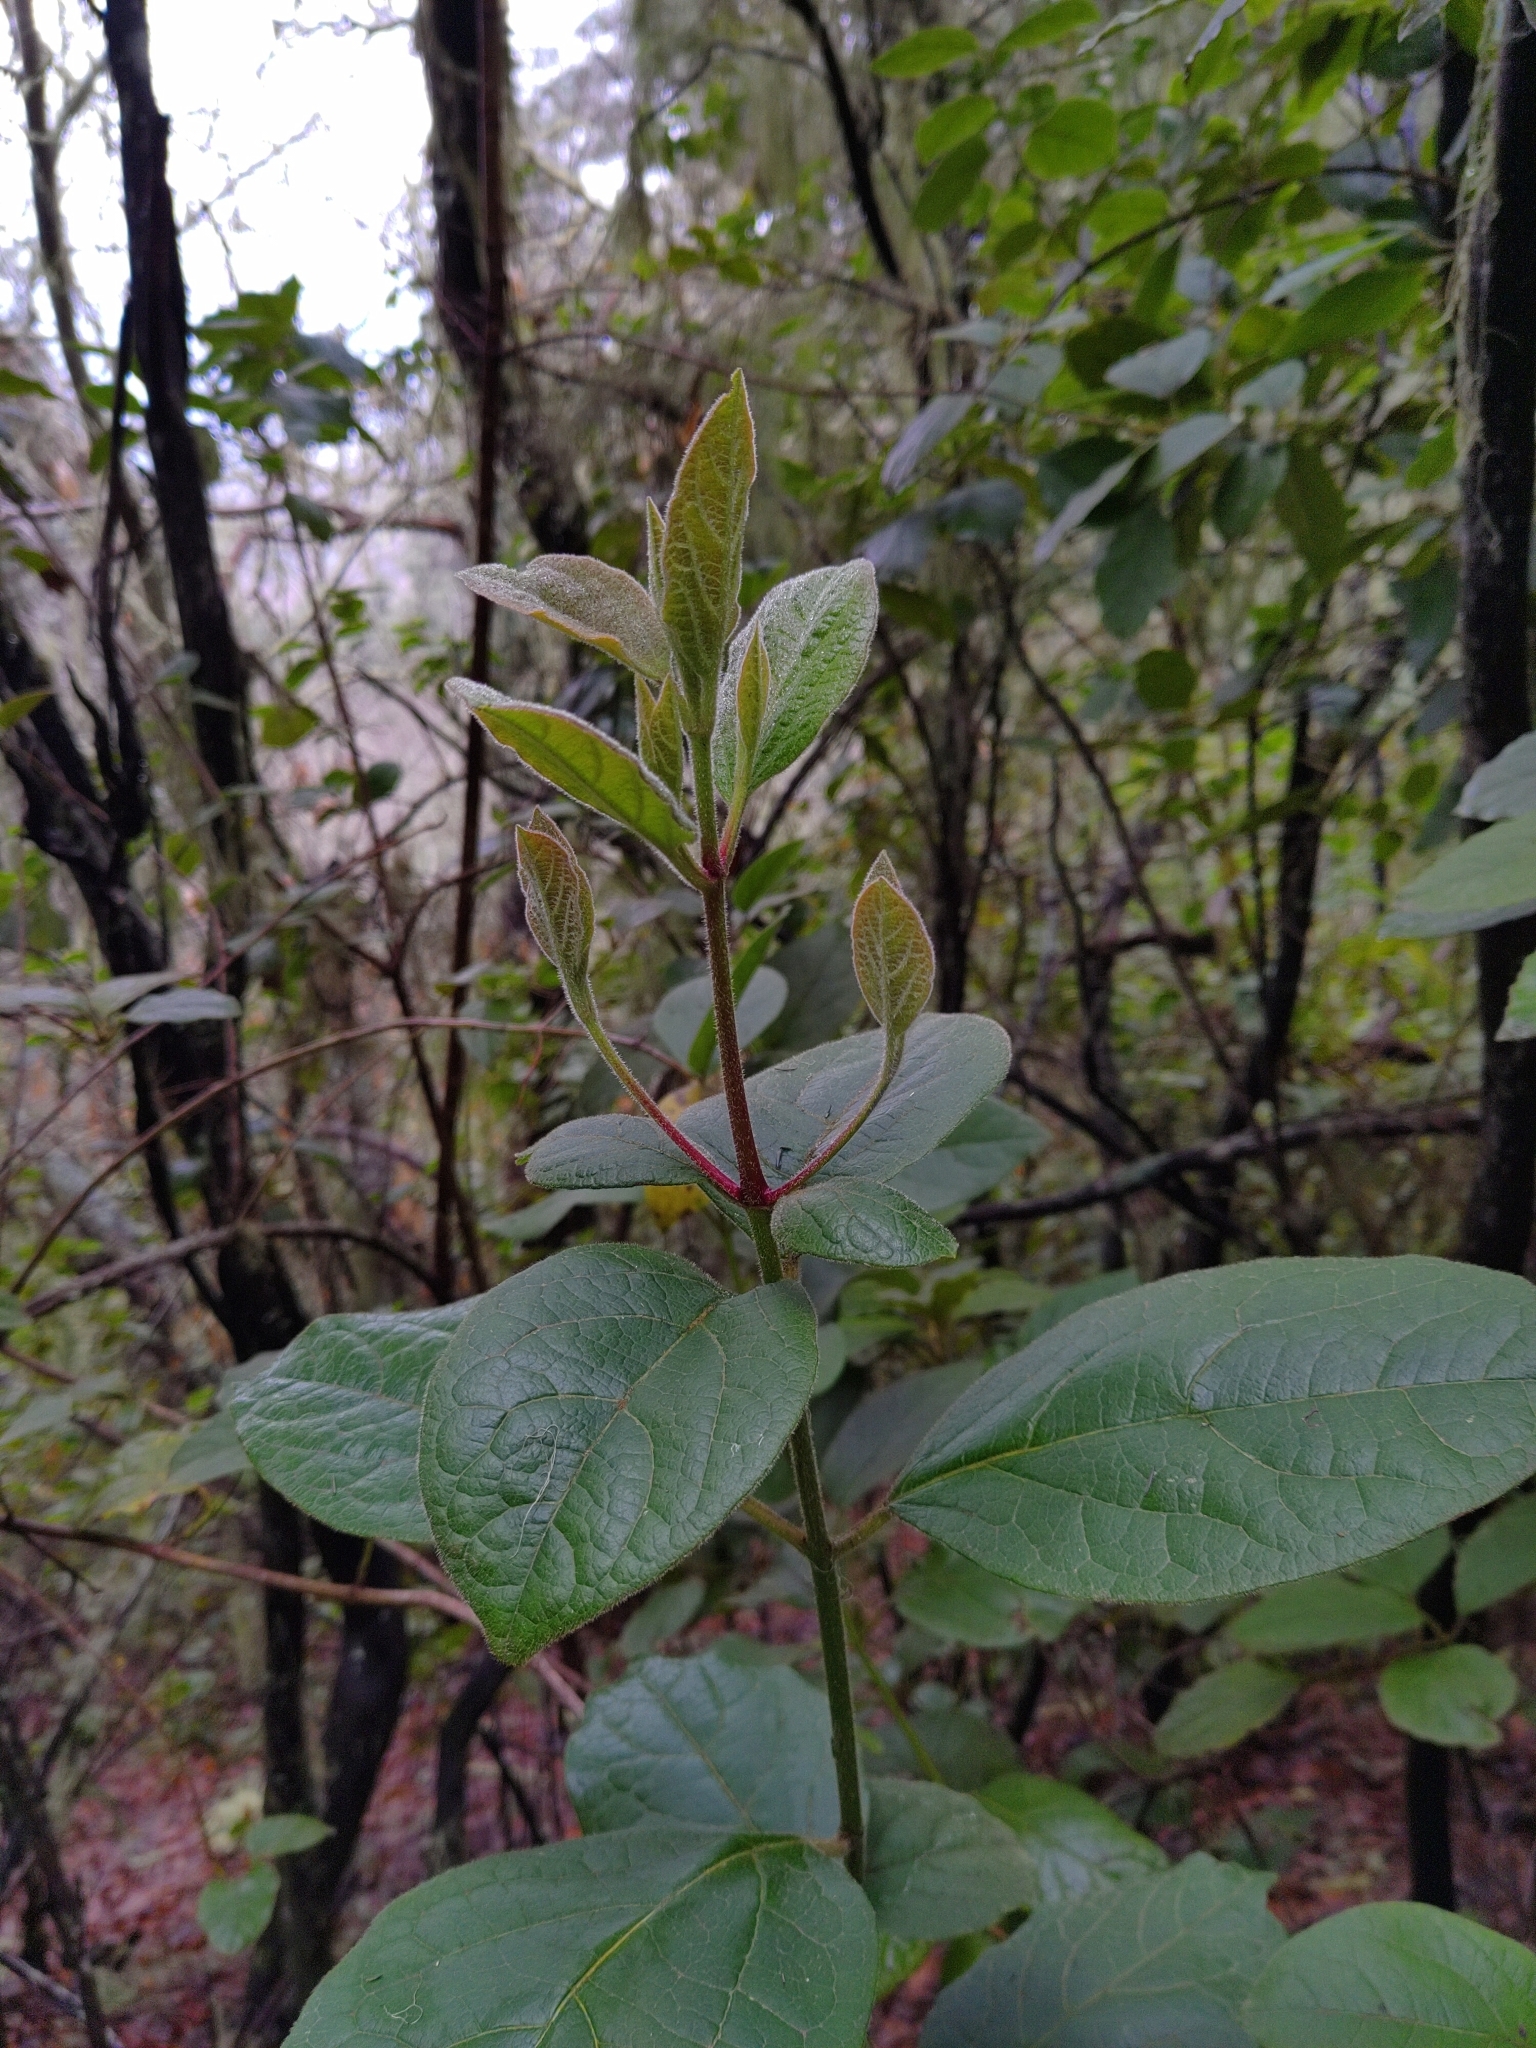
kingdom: Plantae
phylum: Tracheophyta
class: Magnoliopsida
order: Dipsacales
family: Viburnaceae
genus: Viburnum
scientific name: Viburnum rugosum
